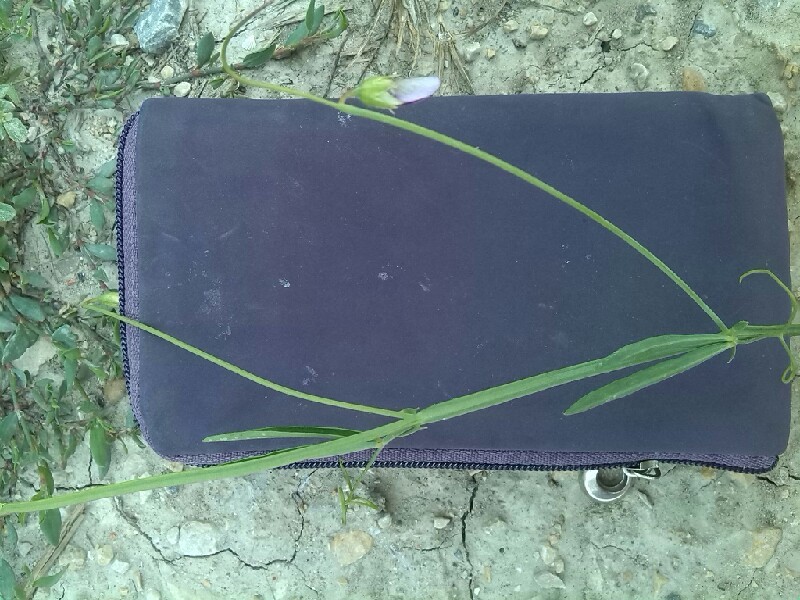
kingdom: Plantae
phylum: Tracheophyta
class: Magnoliopsida
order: Fabales
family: Fabaceae
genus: Lathyrus
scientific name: Lathyrus hirsutus
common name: Hairy vetchling
